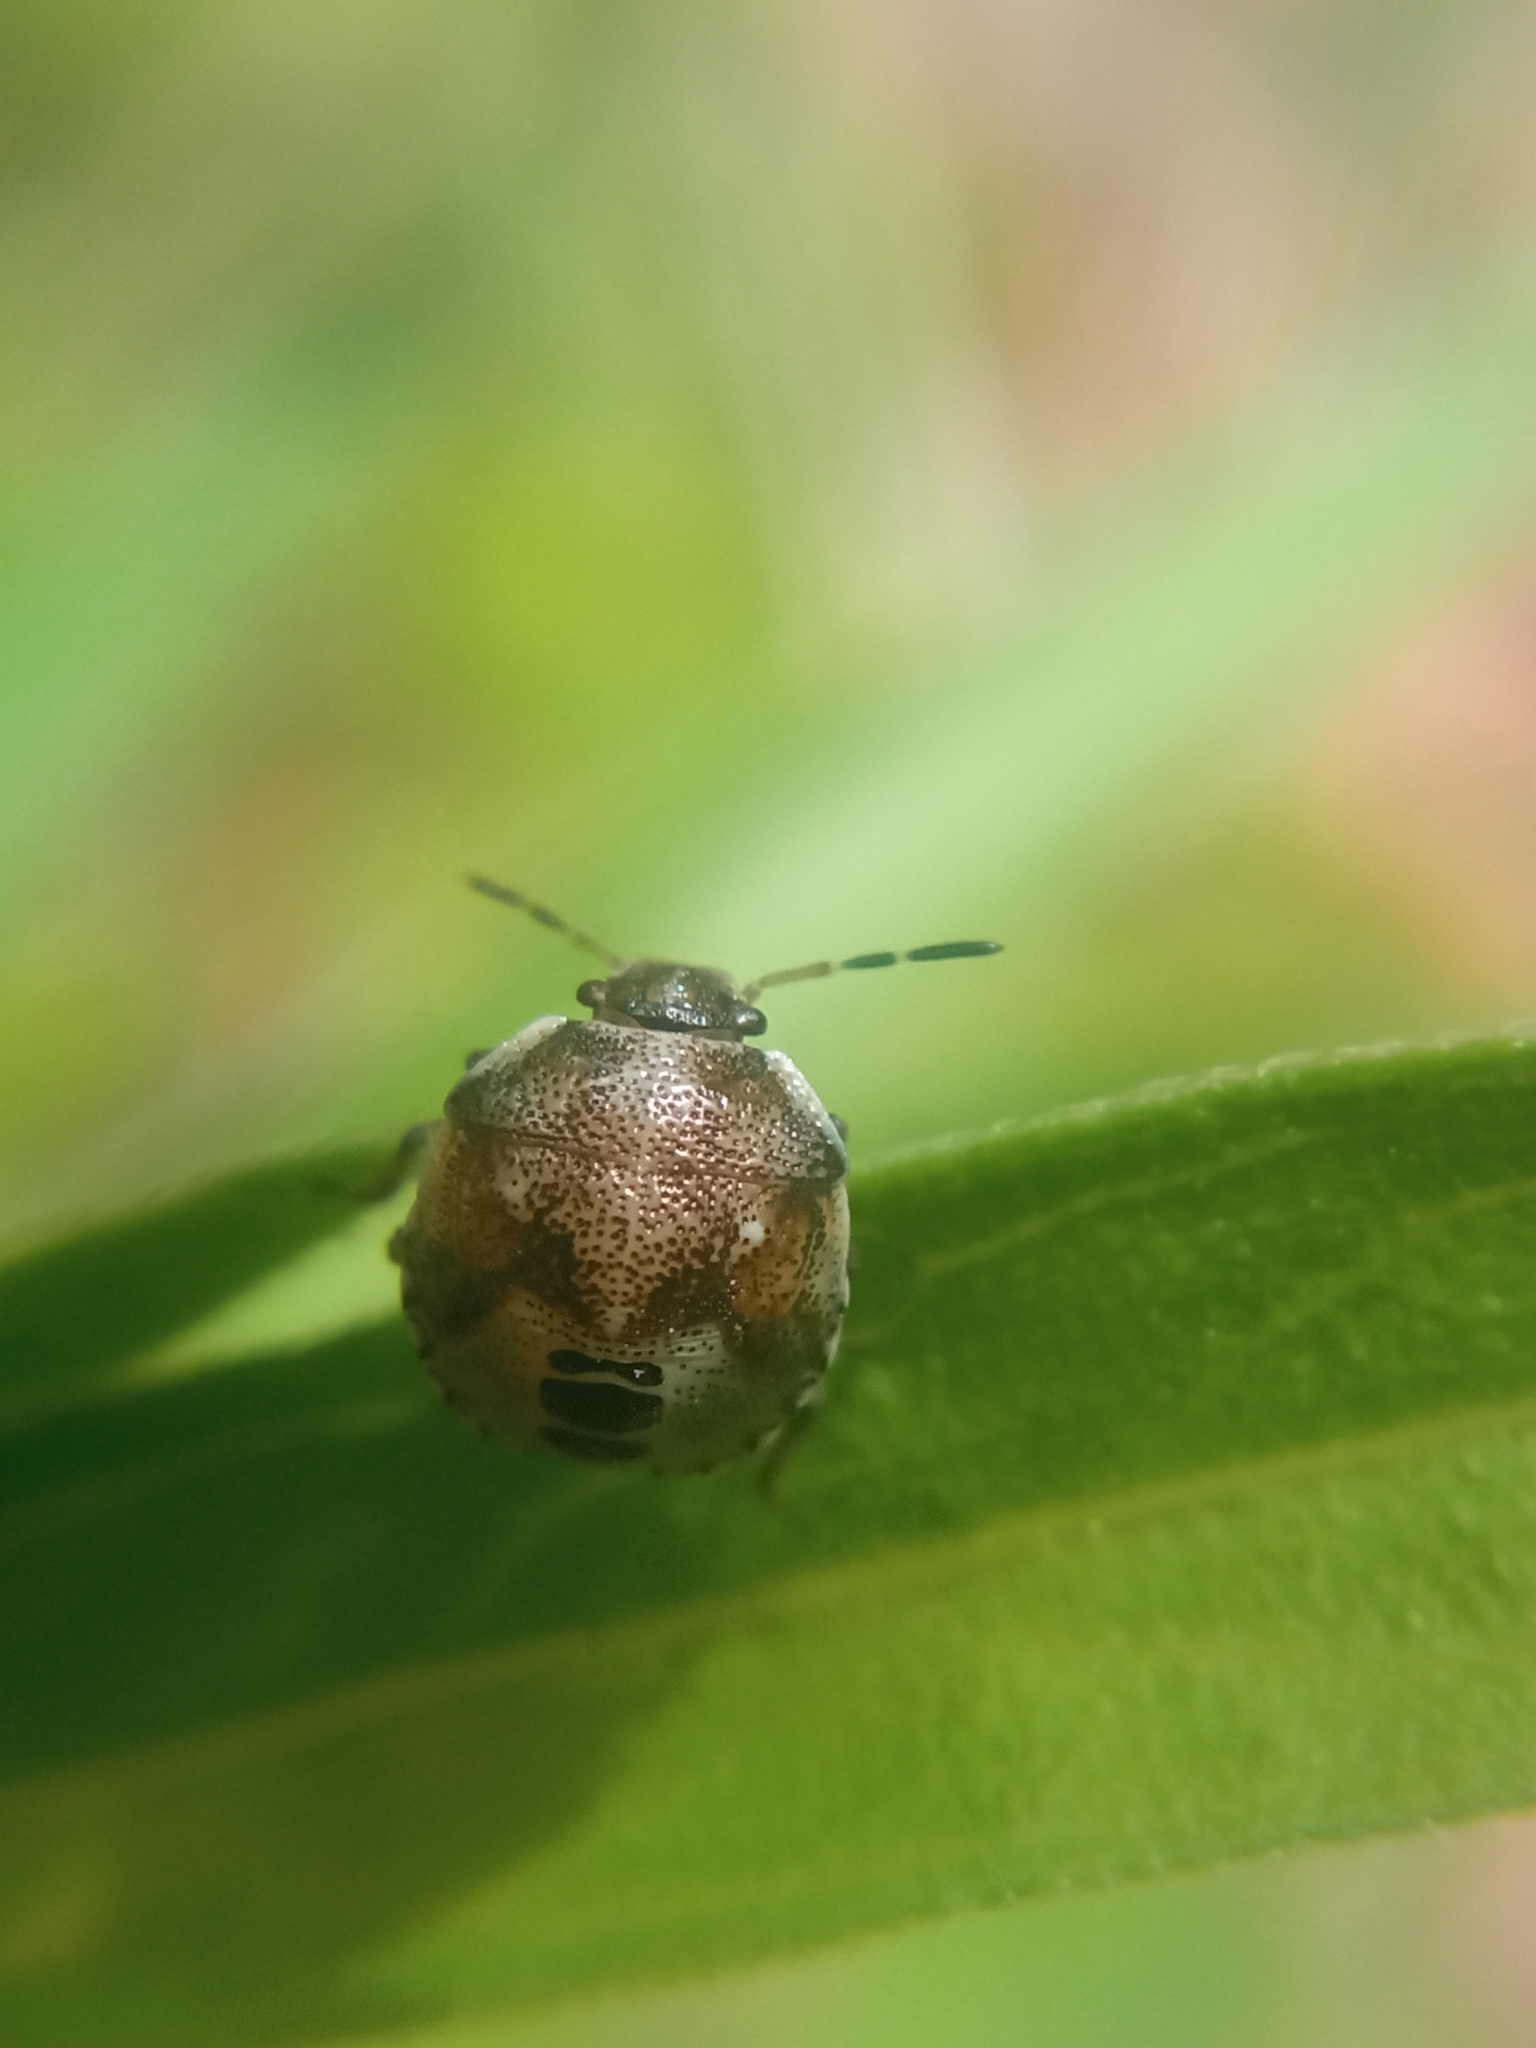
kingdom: Animalia
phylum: Arthropoda
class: Insecta
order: Hemiptera
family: Pentatomidae
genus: Eysarcoris
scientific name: Eysarcoris venustissimus
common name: Woundwort shieldbug
